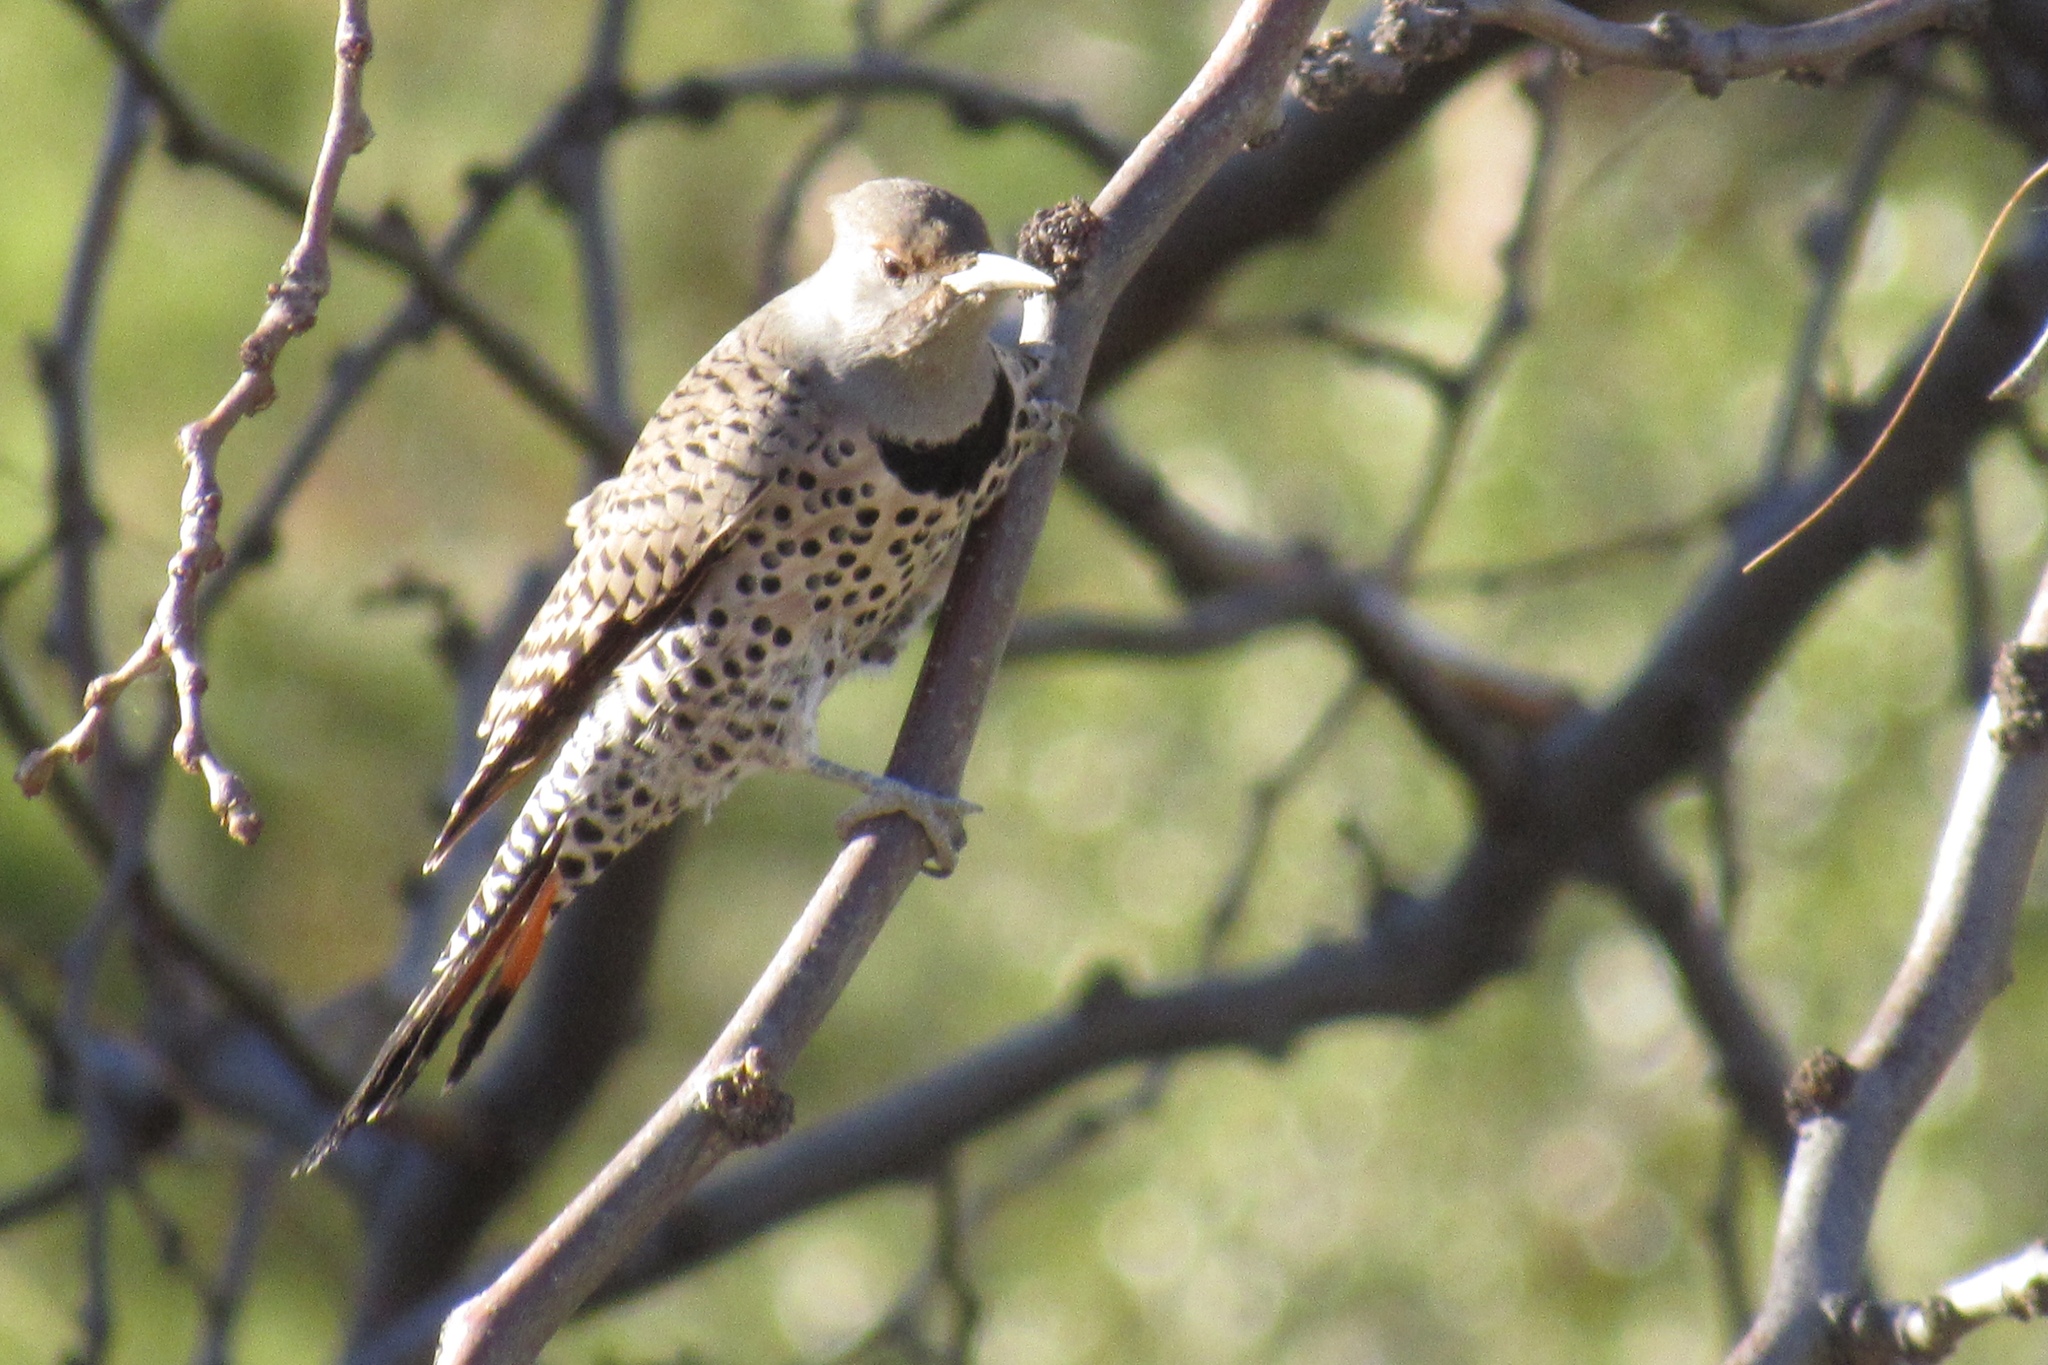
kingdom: Animalia
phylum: Chordata
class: Aves
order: Piciformes
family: Picidae
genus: Colaptes
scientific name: Colaptes auratus
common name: Northern flicker
